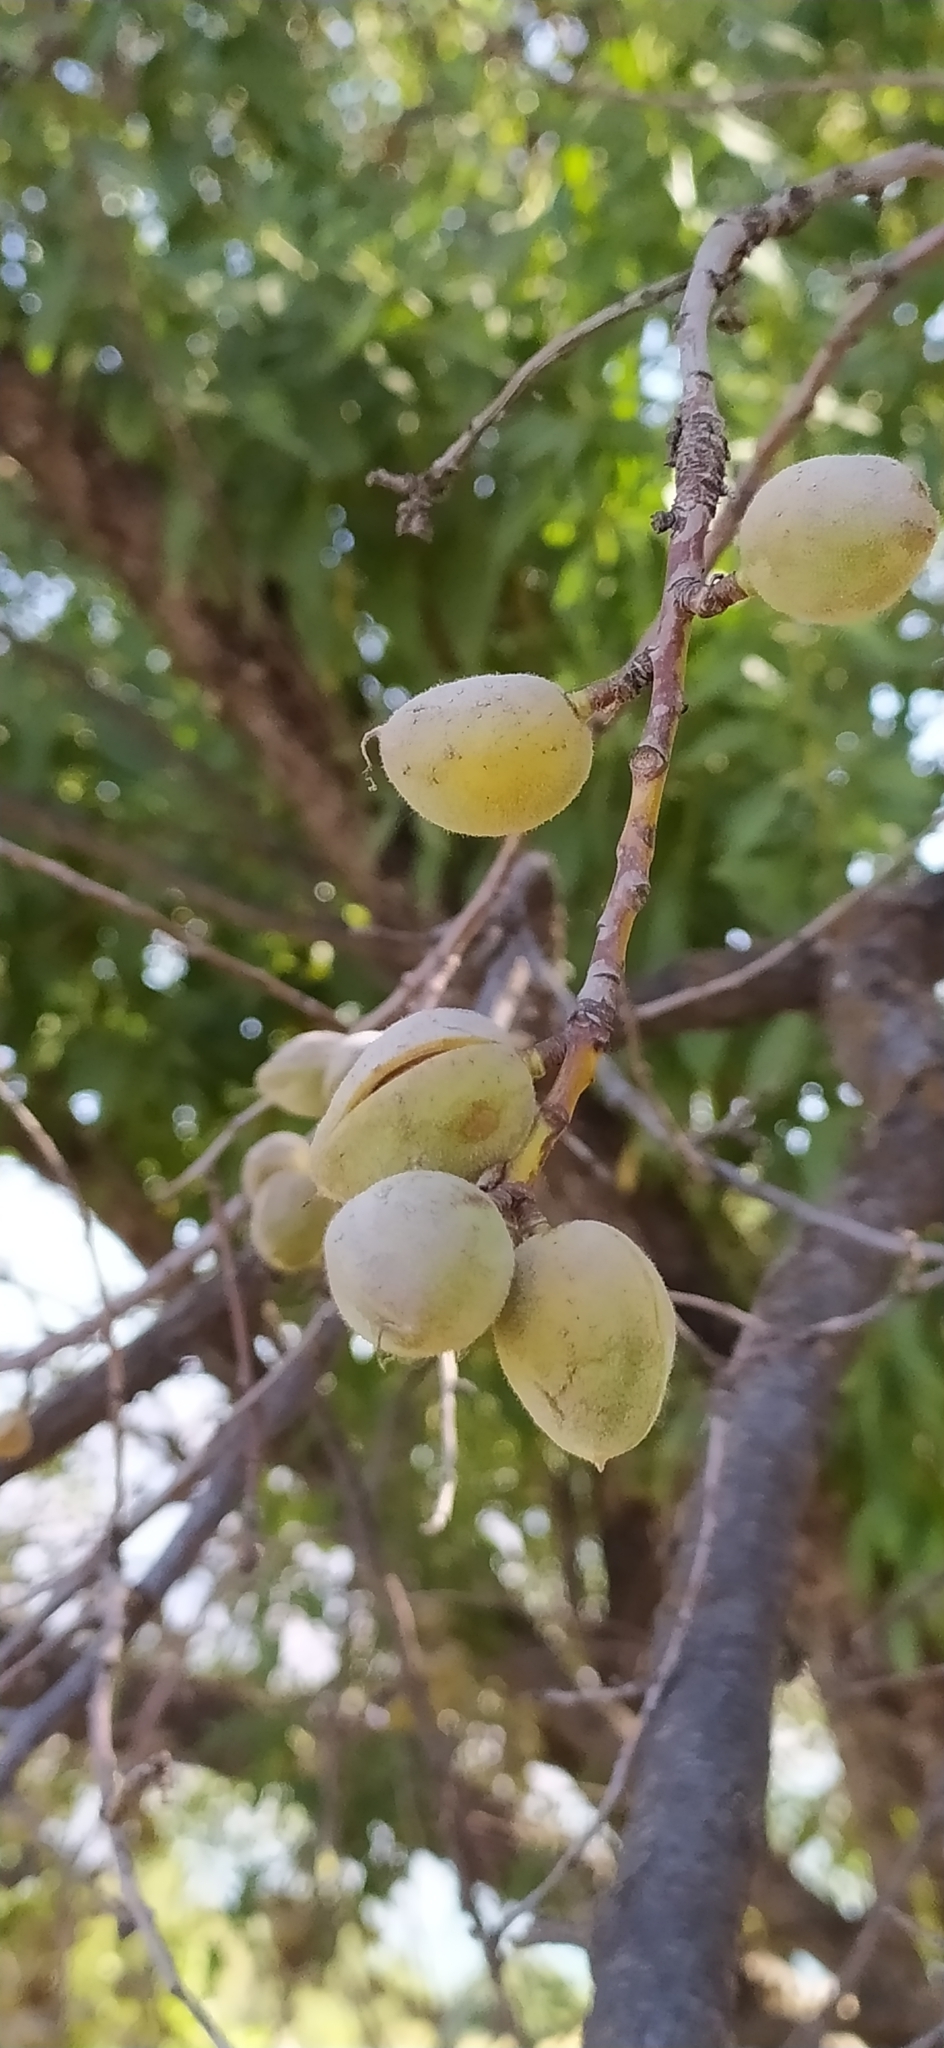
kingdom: Plantae
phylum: Tracheophyta
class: Magnoliopsida
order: Rosales
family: Rosaceae
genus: Prunus
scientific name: Prunus bucharica
